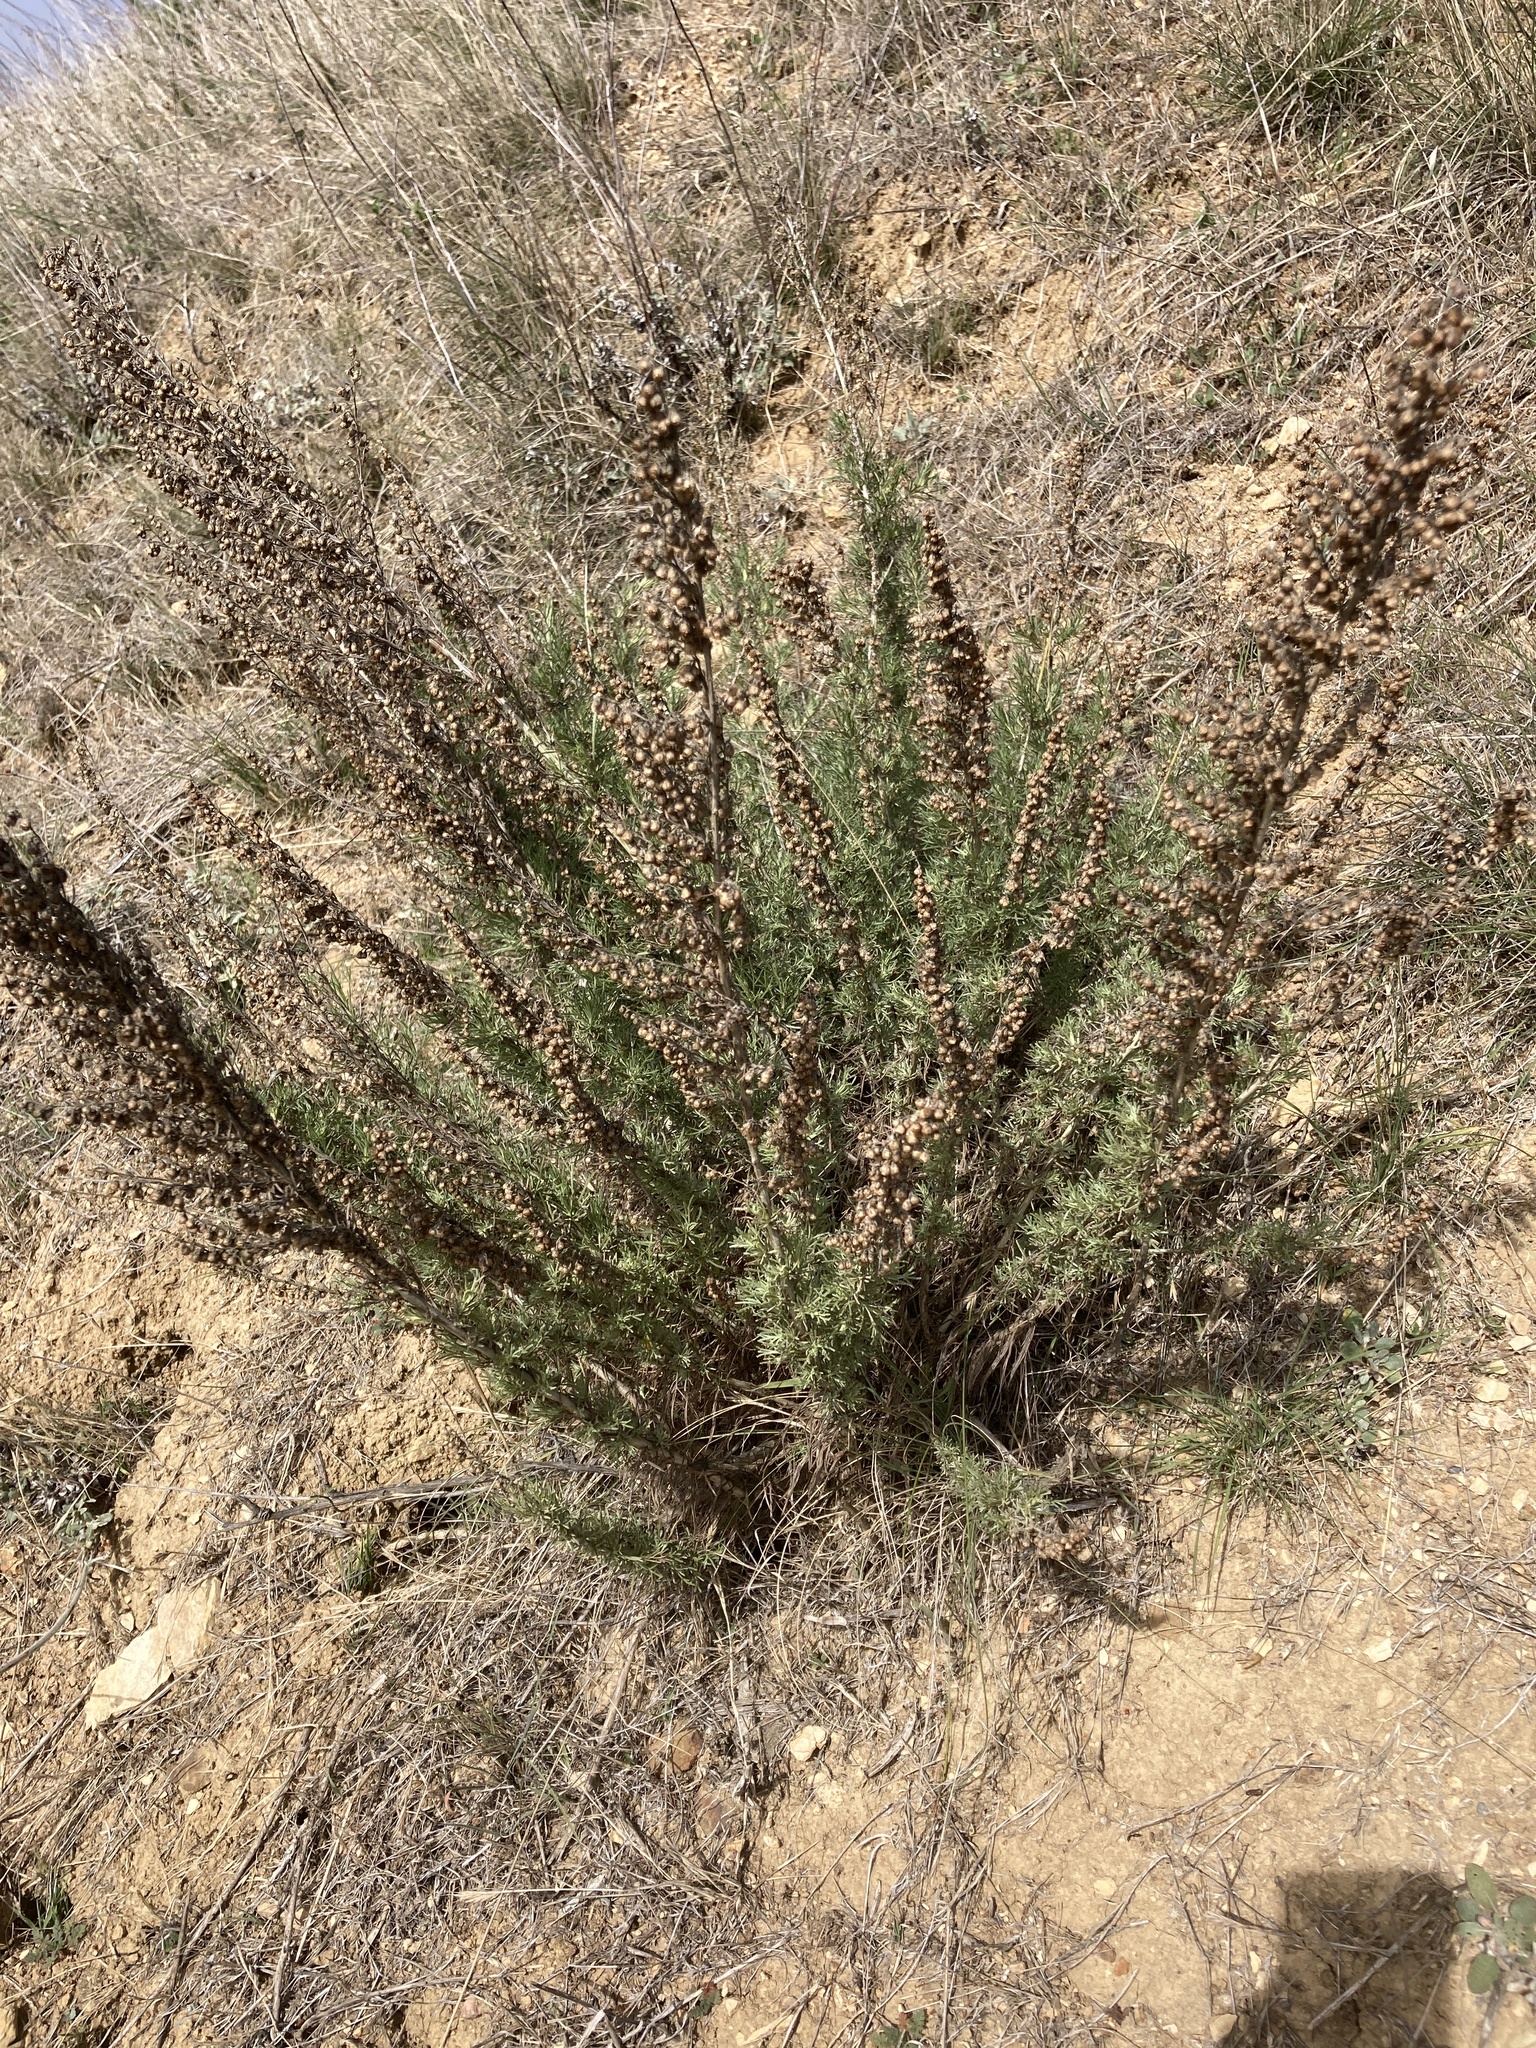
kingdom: Plantae
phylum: Tracheophyta
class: Magnoliopsida
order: Asterales
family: Asteraceae
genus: Artemisia
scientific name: Artemisia californica
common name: California sagebrush
